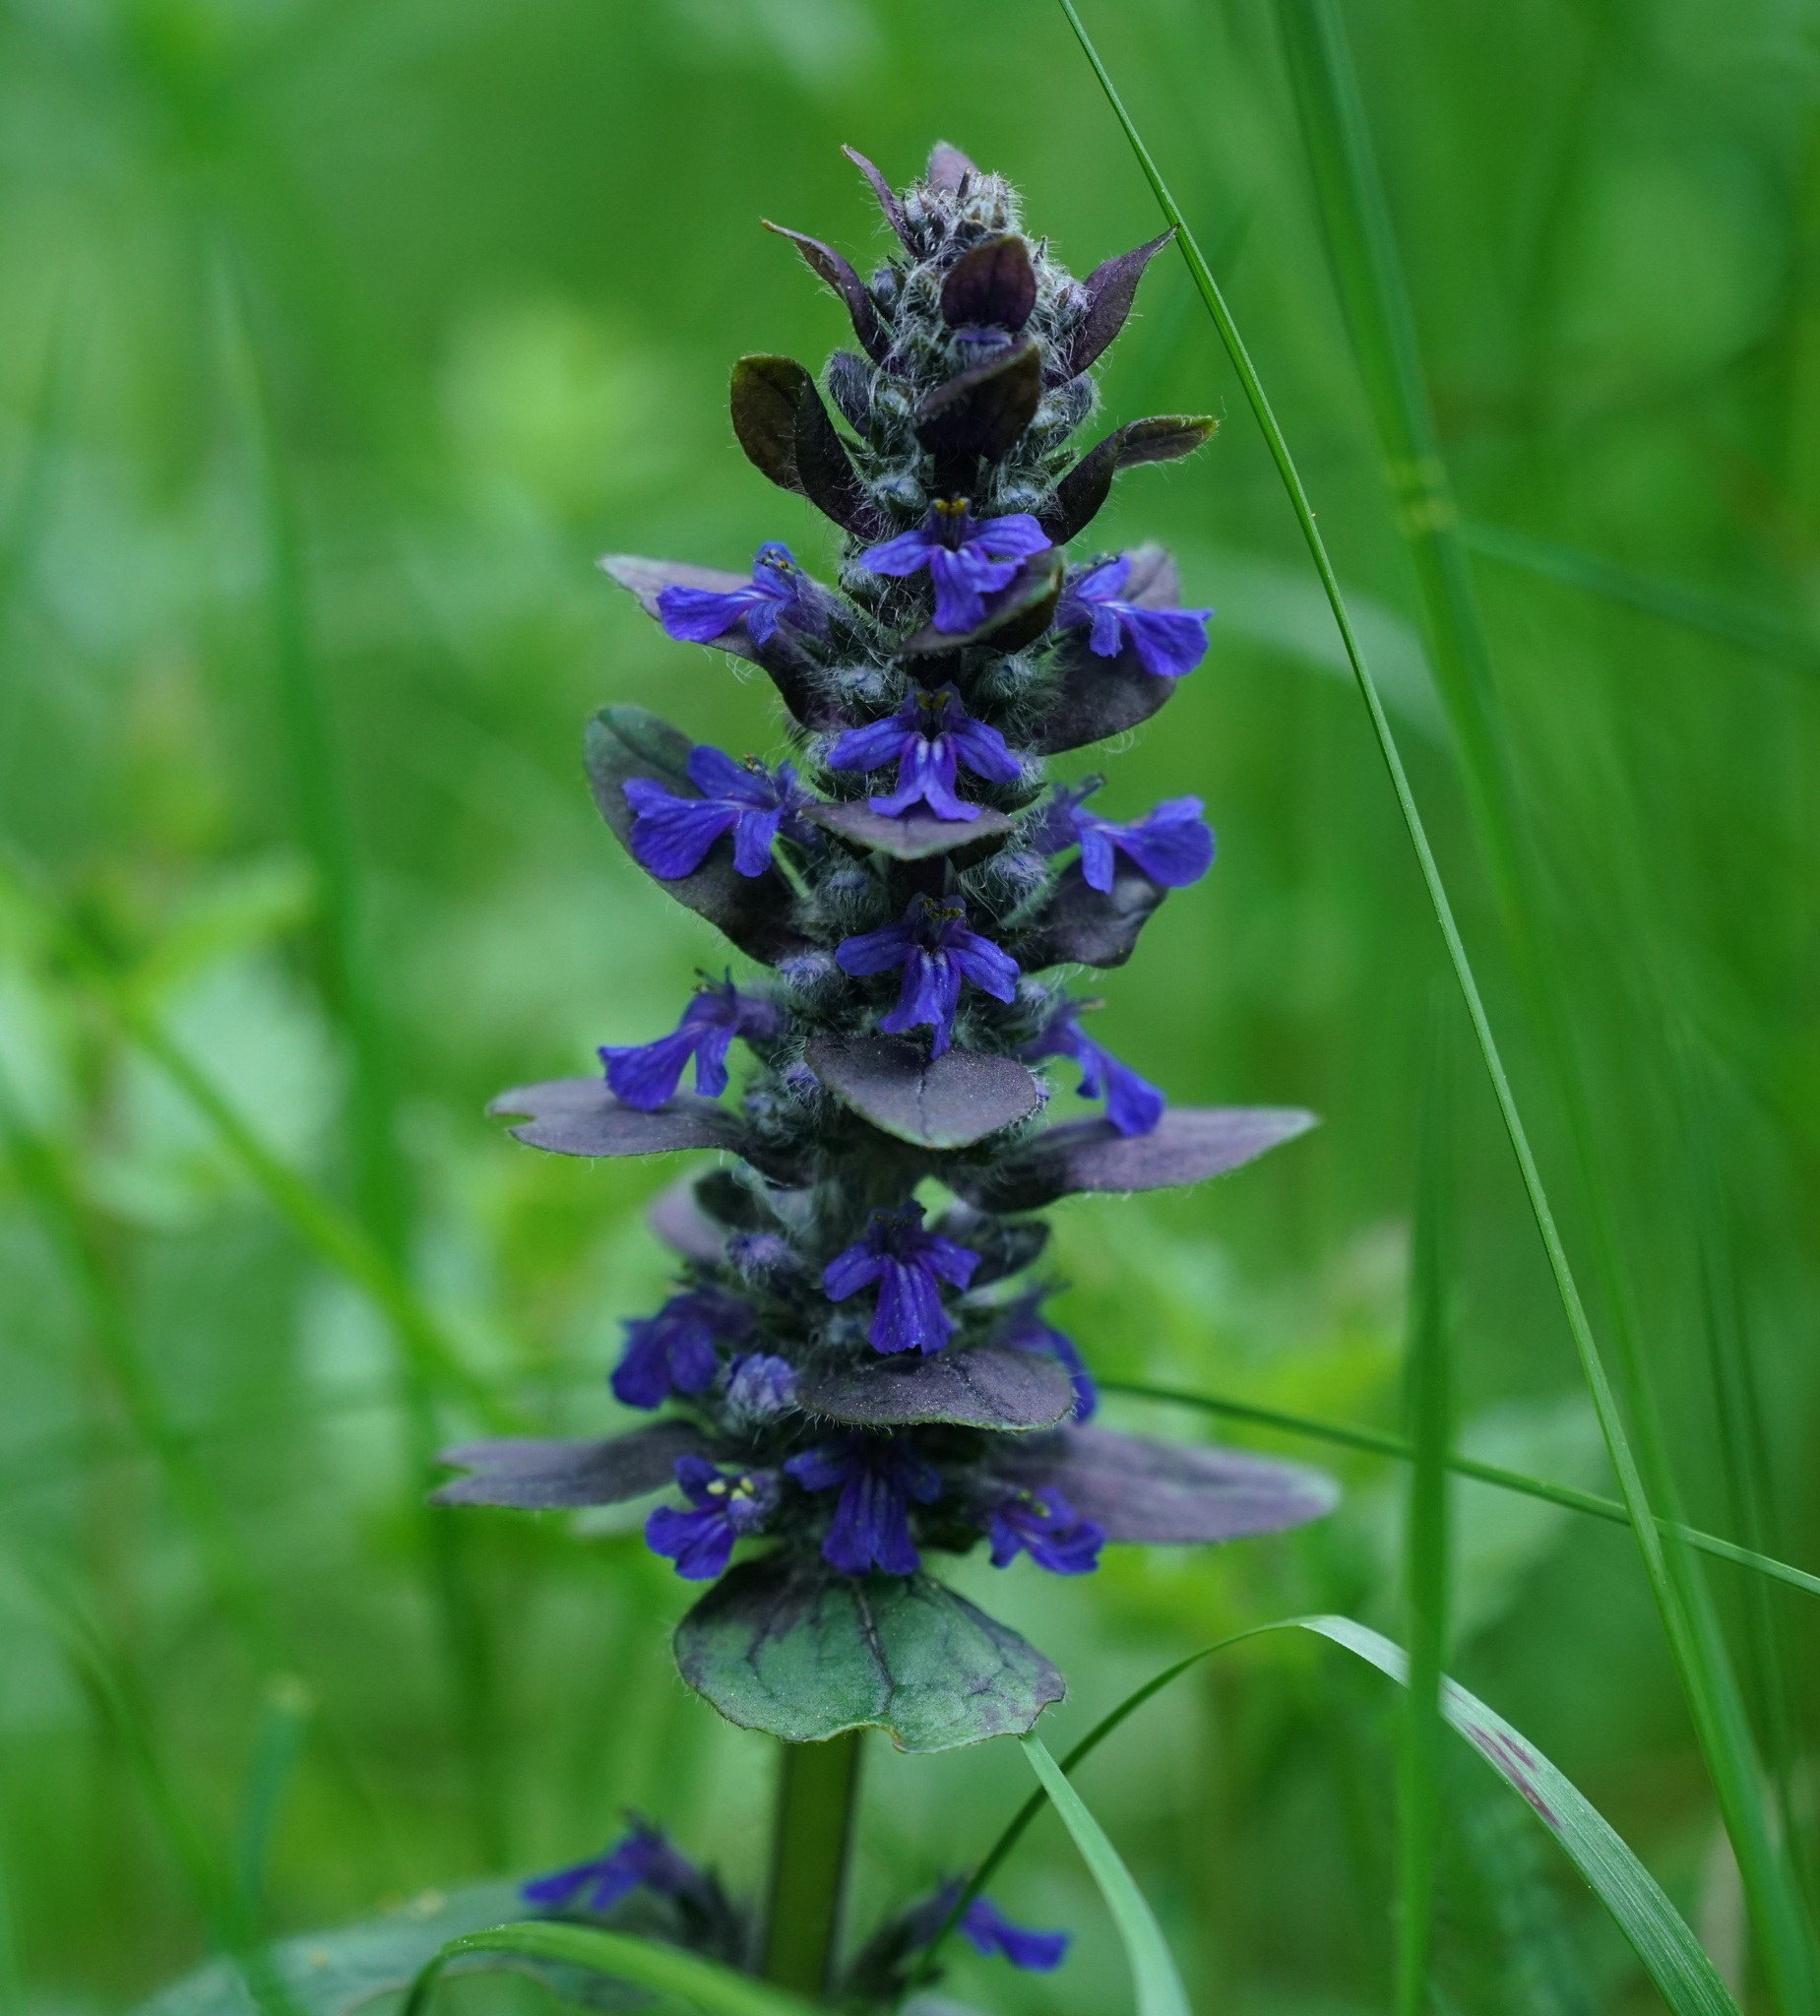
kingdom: Plantae
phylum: Tracheophyta
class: Magnoliopsida
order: Lamiales
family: Lamiaceae
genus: Ajuga
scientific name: Ajuga reptans
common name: Bugle
